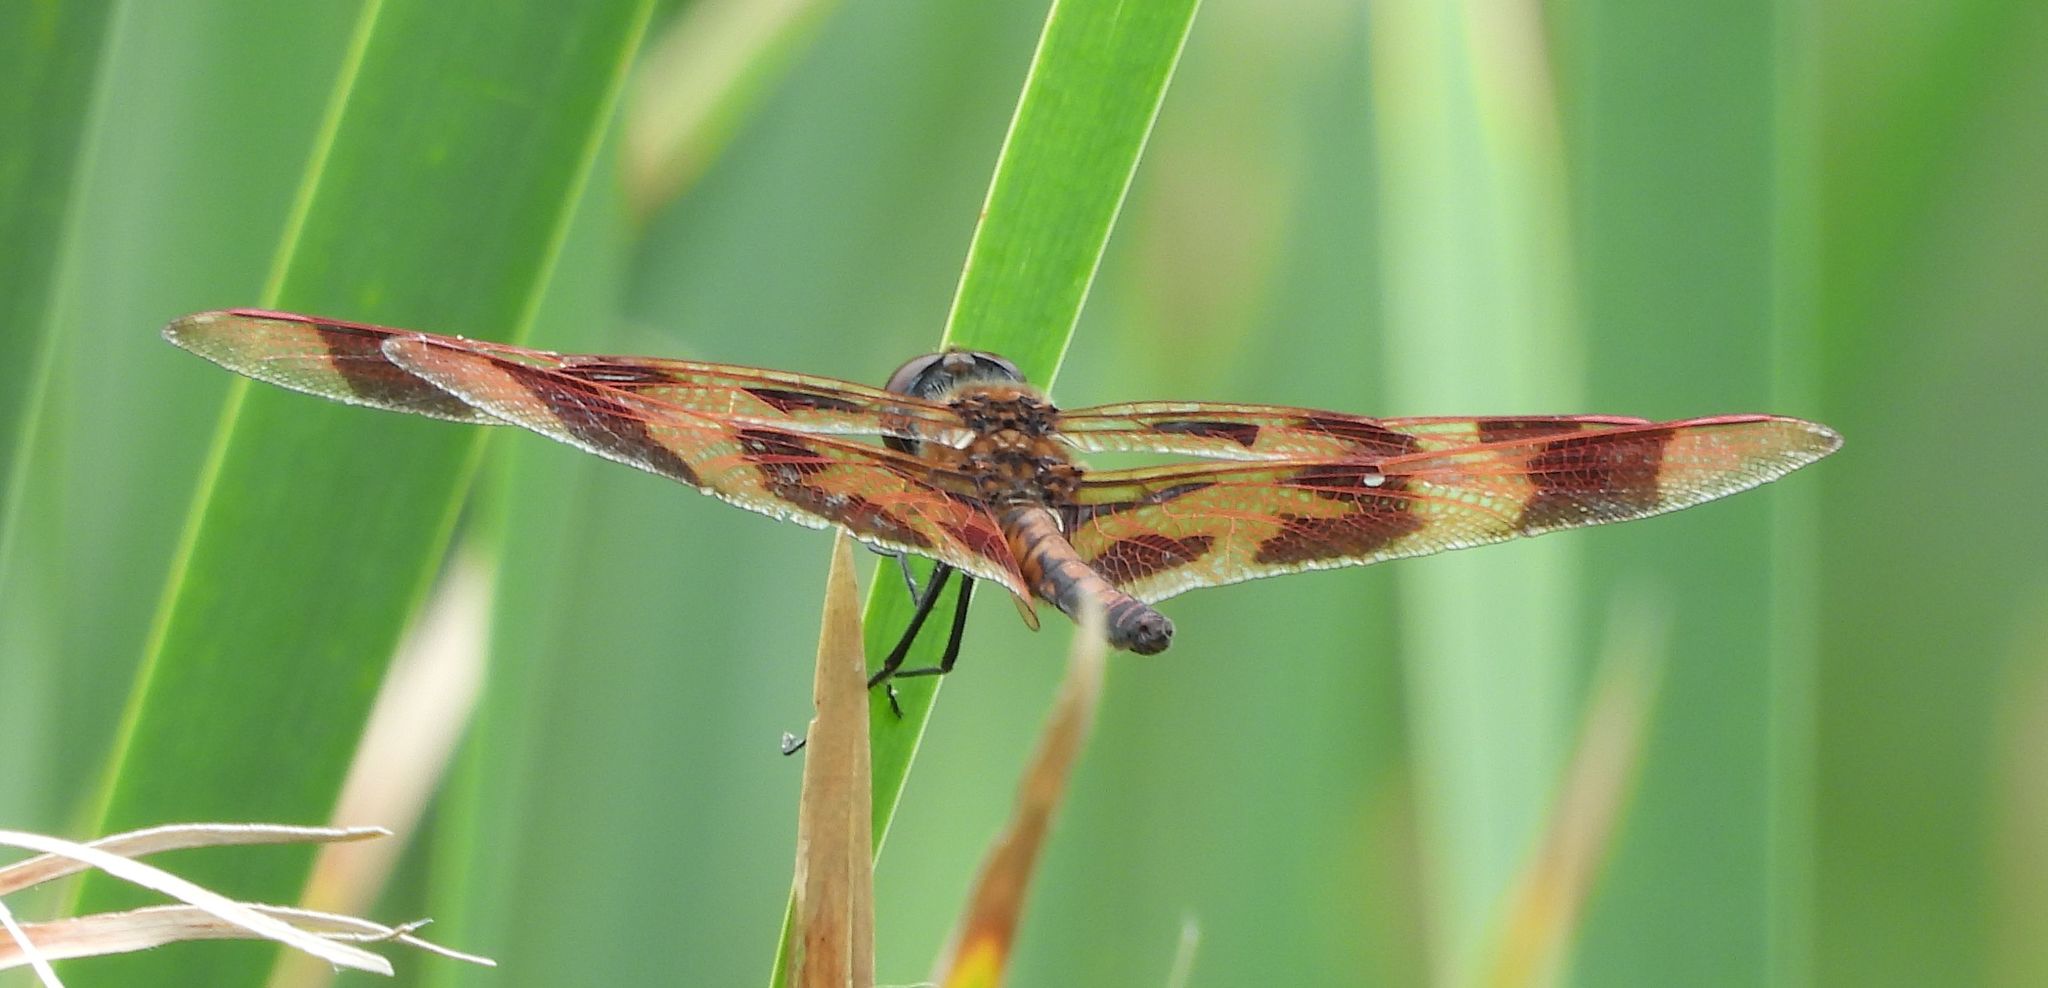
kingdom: Animalia
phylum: Arthropoda
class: Insecta
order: Odonata
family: Libellulidae
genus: Celithemis
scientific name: Celithemis eponina
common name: Halloween pennant
